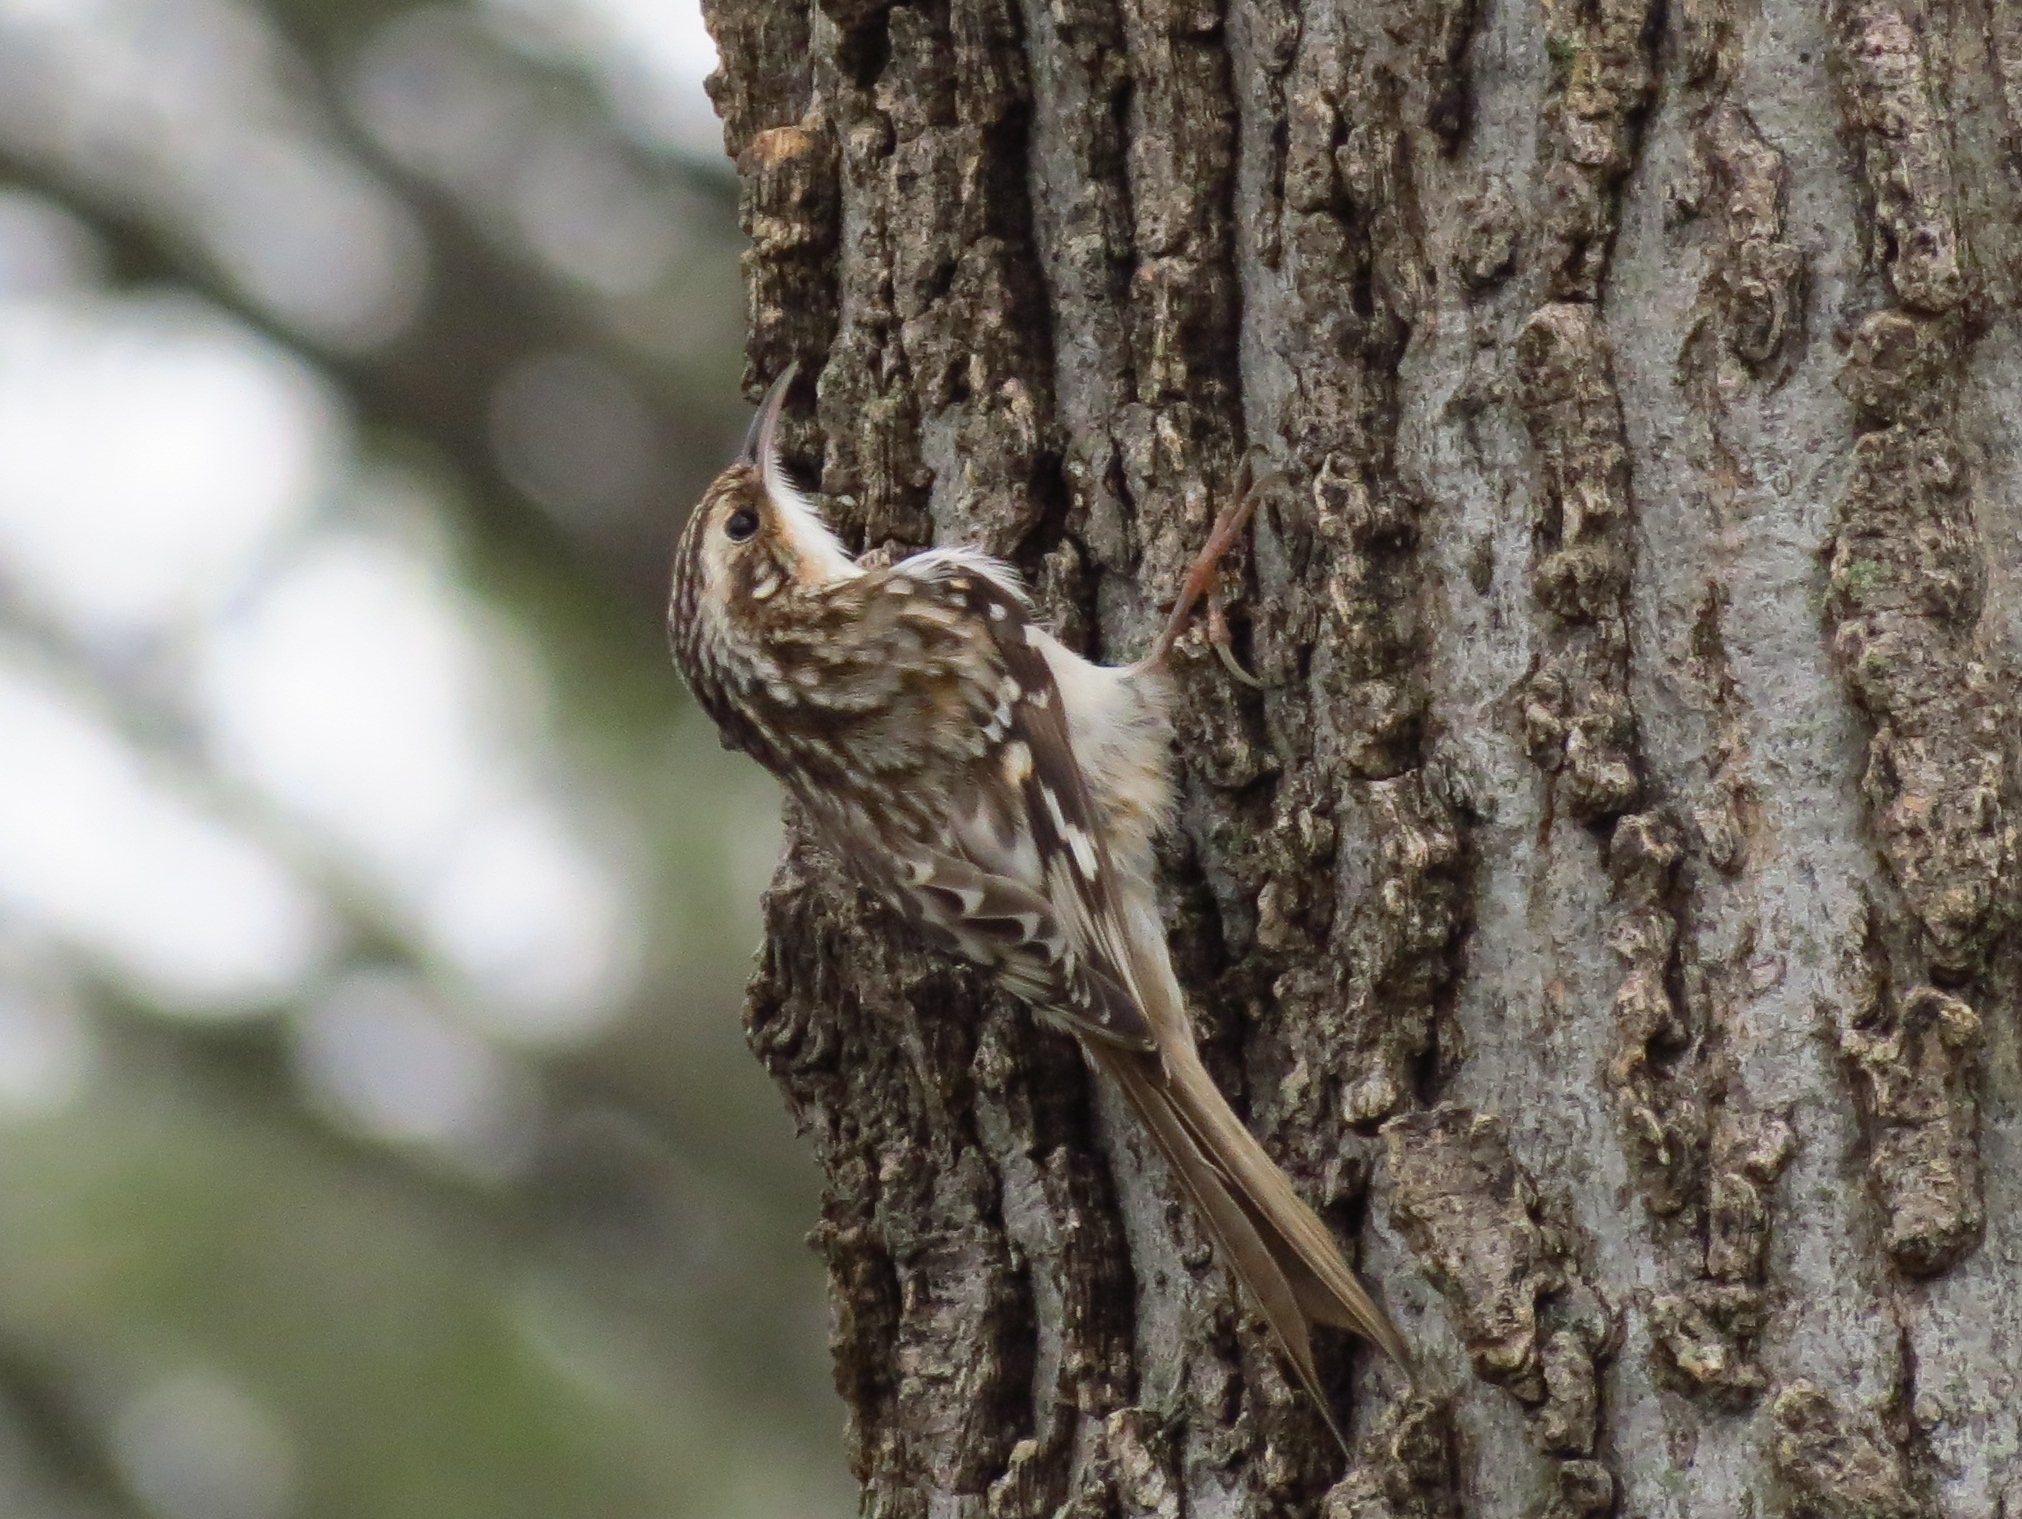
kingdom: Animalia
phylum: Chordata
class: Aves
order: Passeriformes
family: Certhiidae
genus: Certhia
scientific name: Certhia americana
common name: Brown creeper
